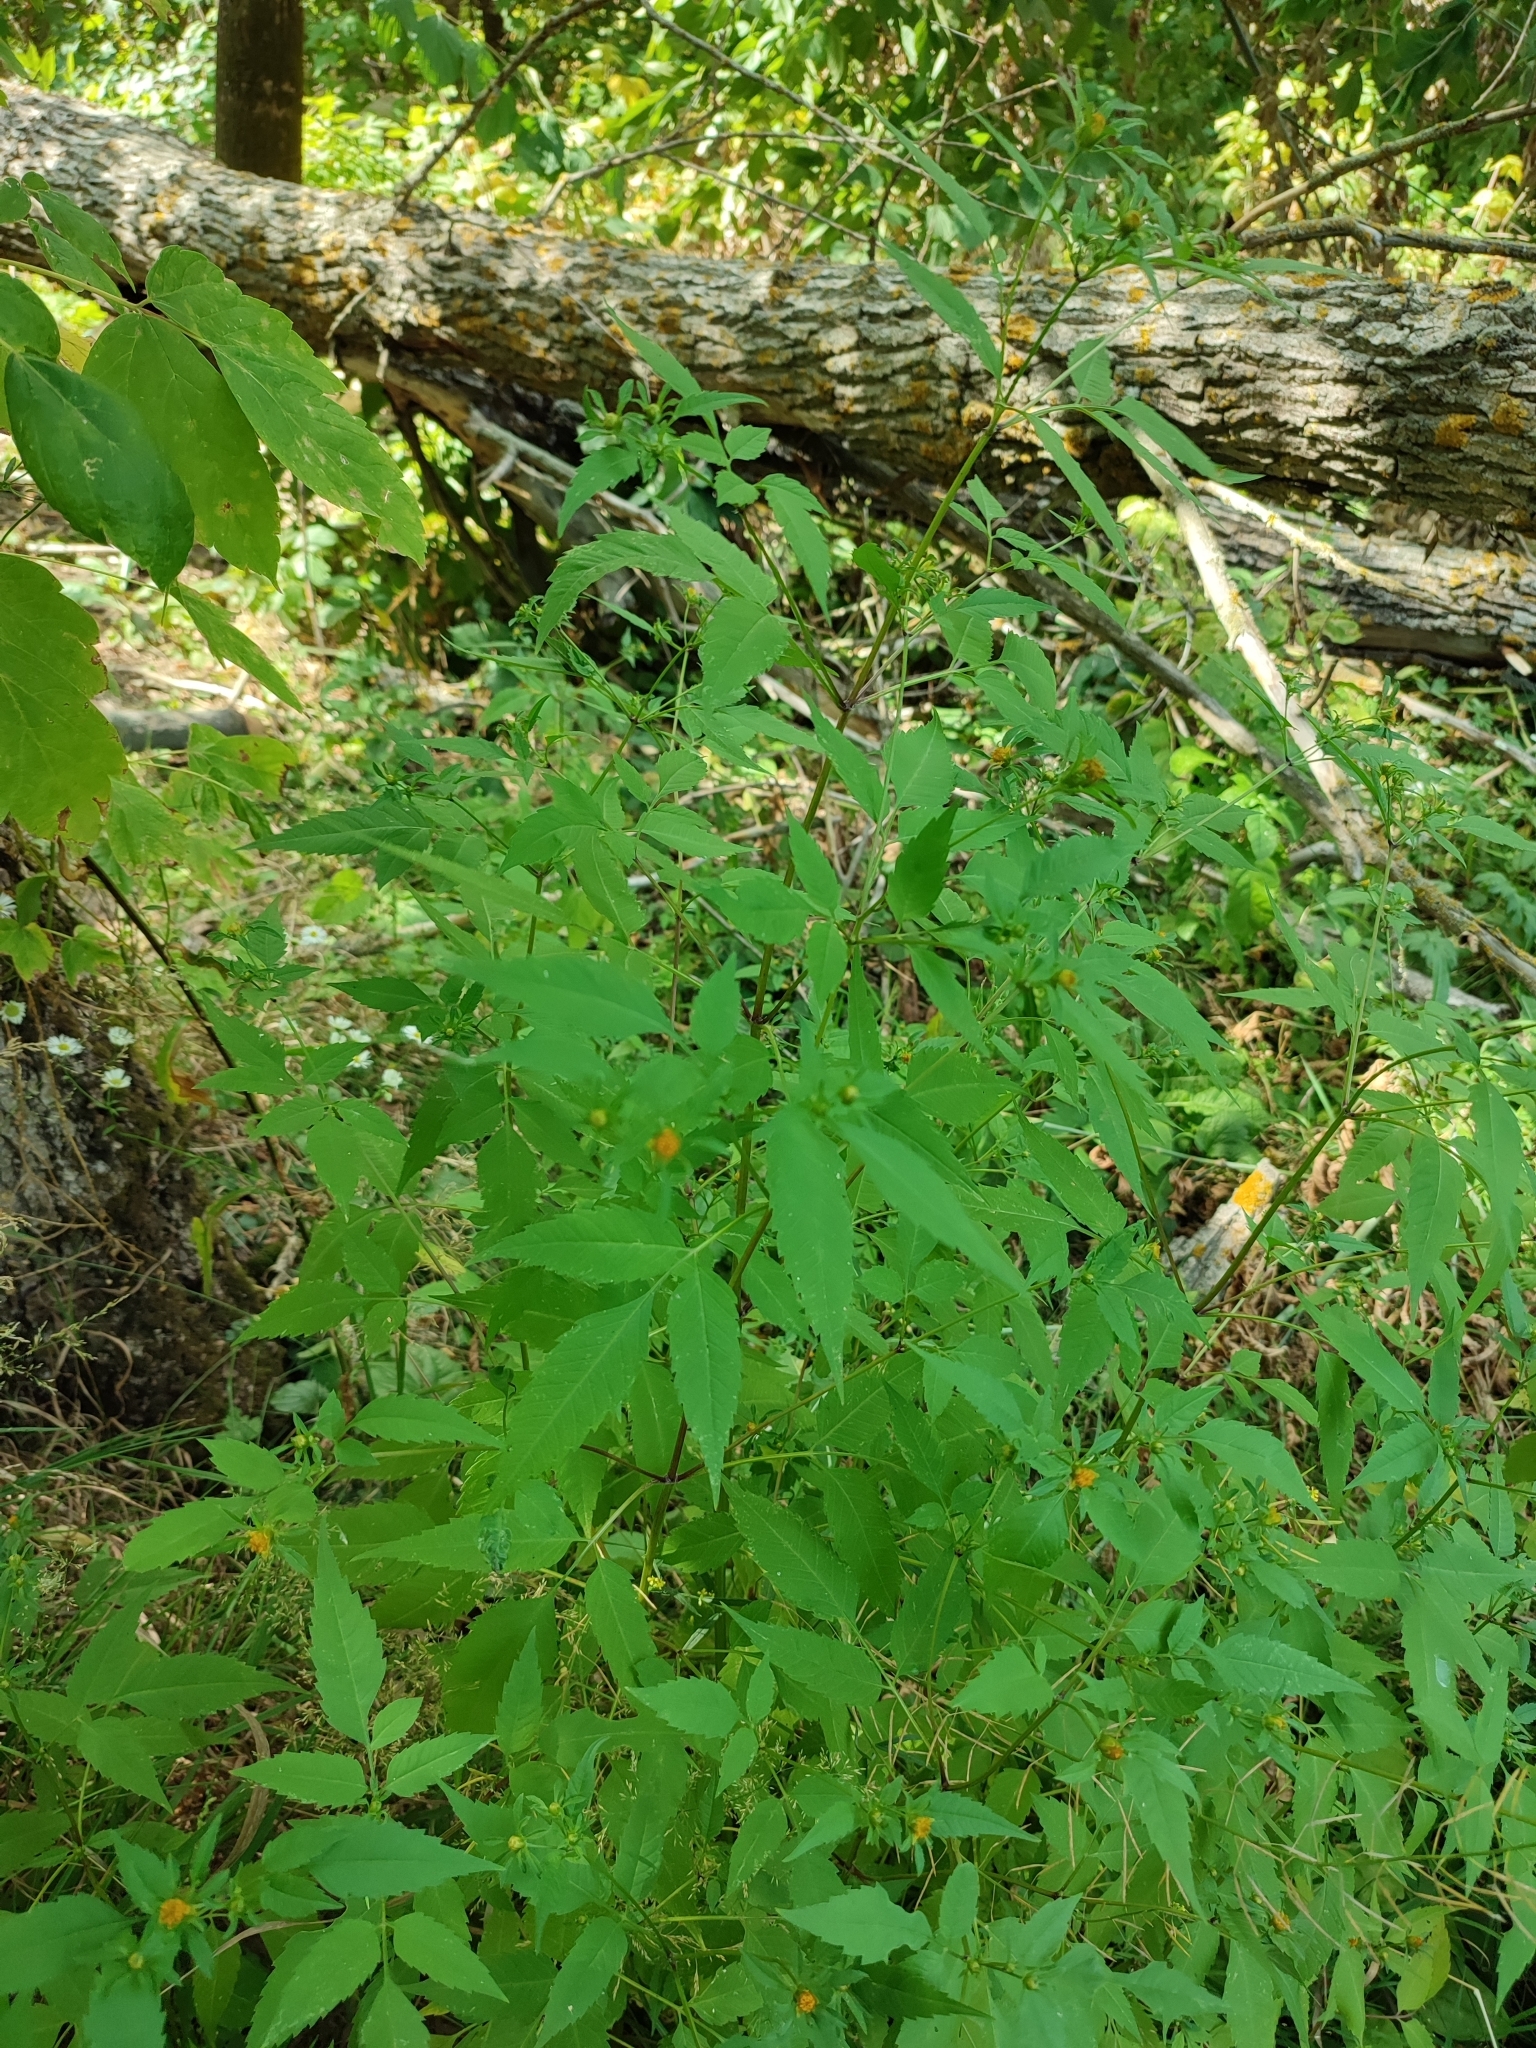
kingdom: Plantae
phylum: Tracheophyta
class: Magnoliopsida
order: Asterales
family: Asteraceae
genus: Bidens
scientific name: Bidens frondosa
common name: Beggarticks
